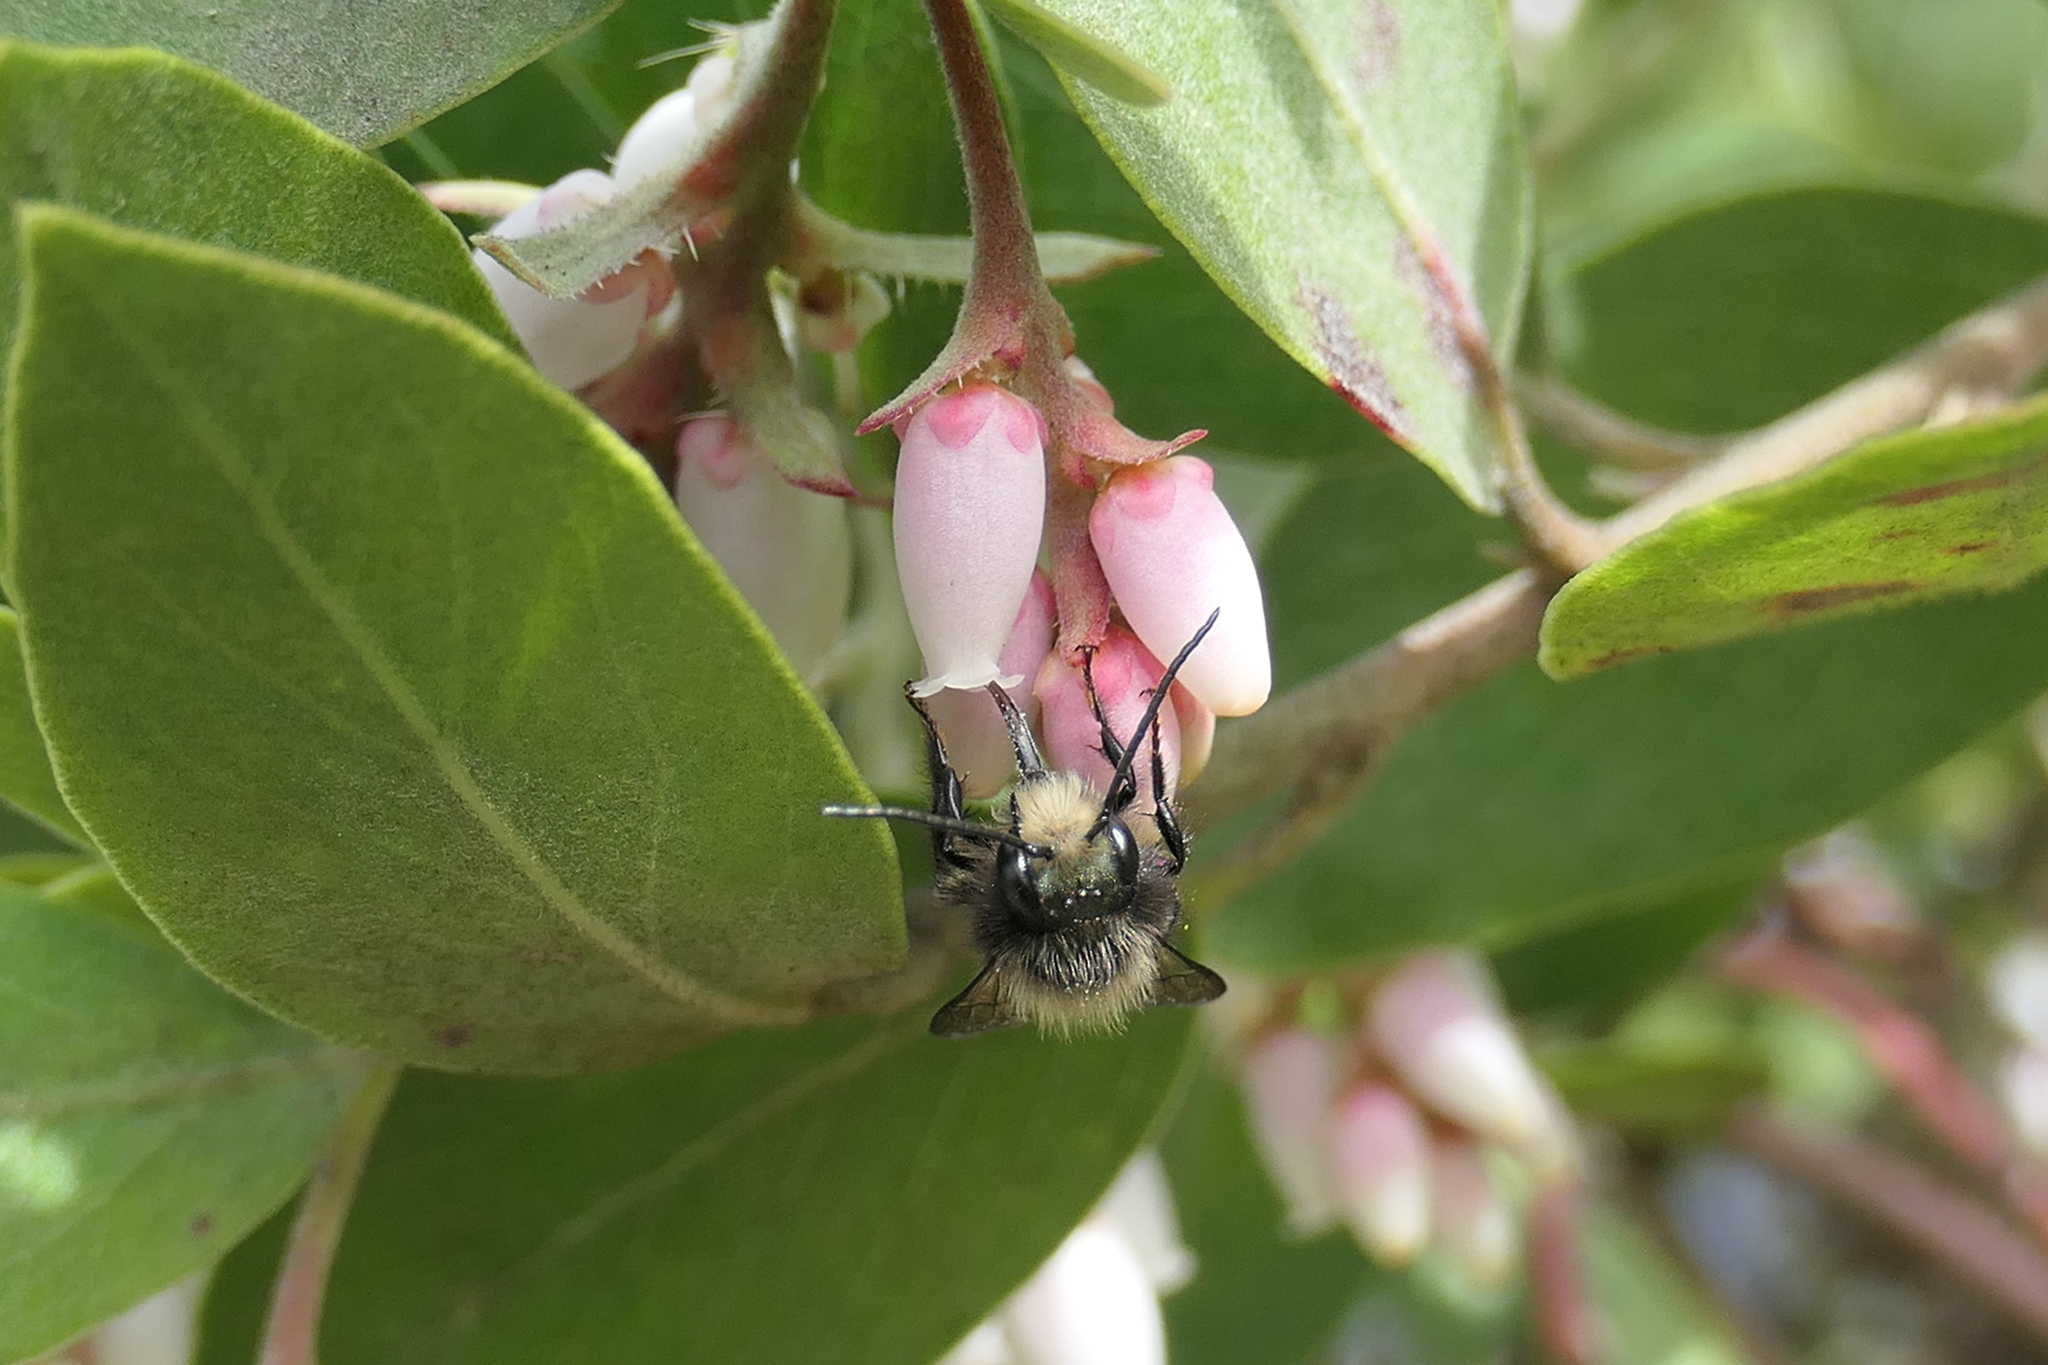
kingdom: Animalia
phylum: Arthropoda
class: Insecta
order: Hymenoptera
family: Megachilidae
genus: Osmia
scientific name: Osmia lignaria
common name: Blue orchard bee
